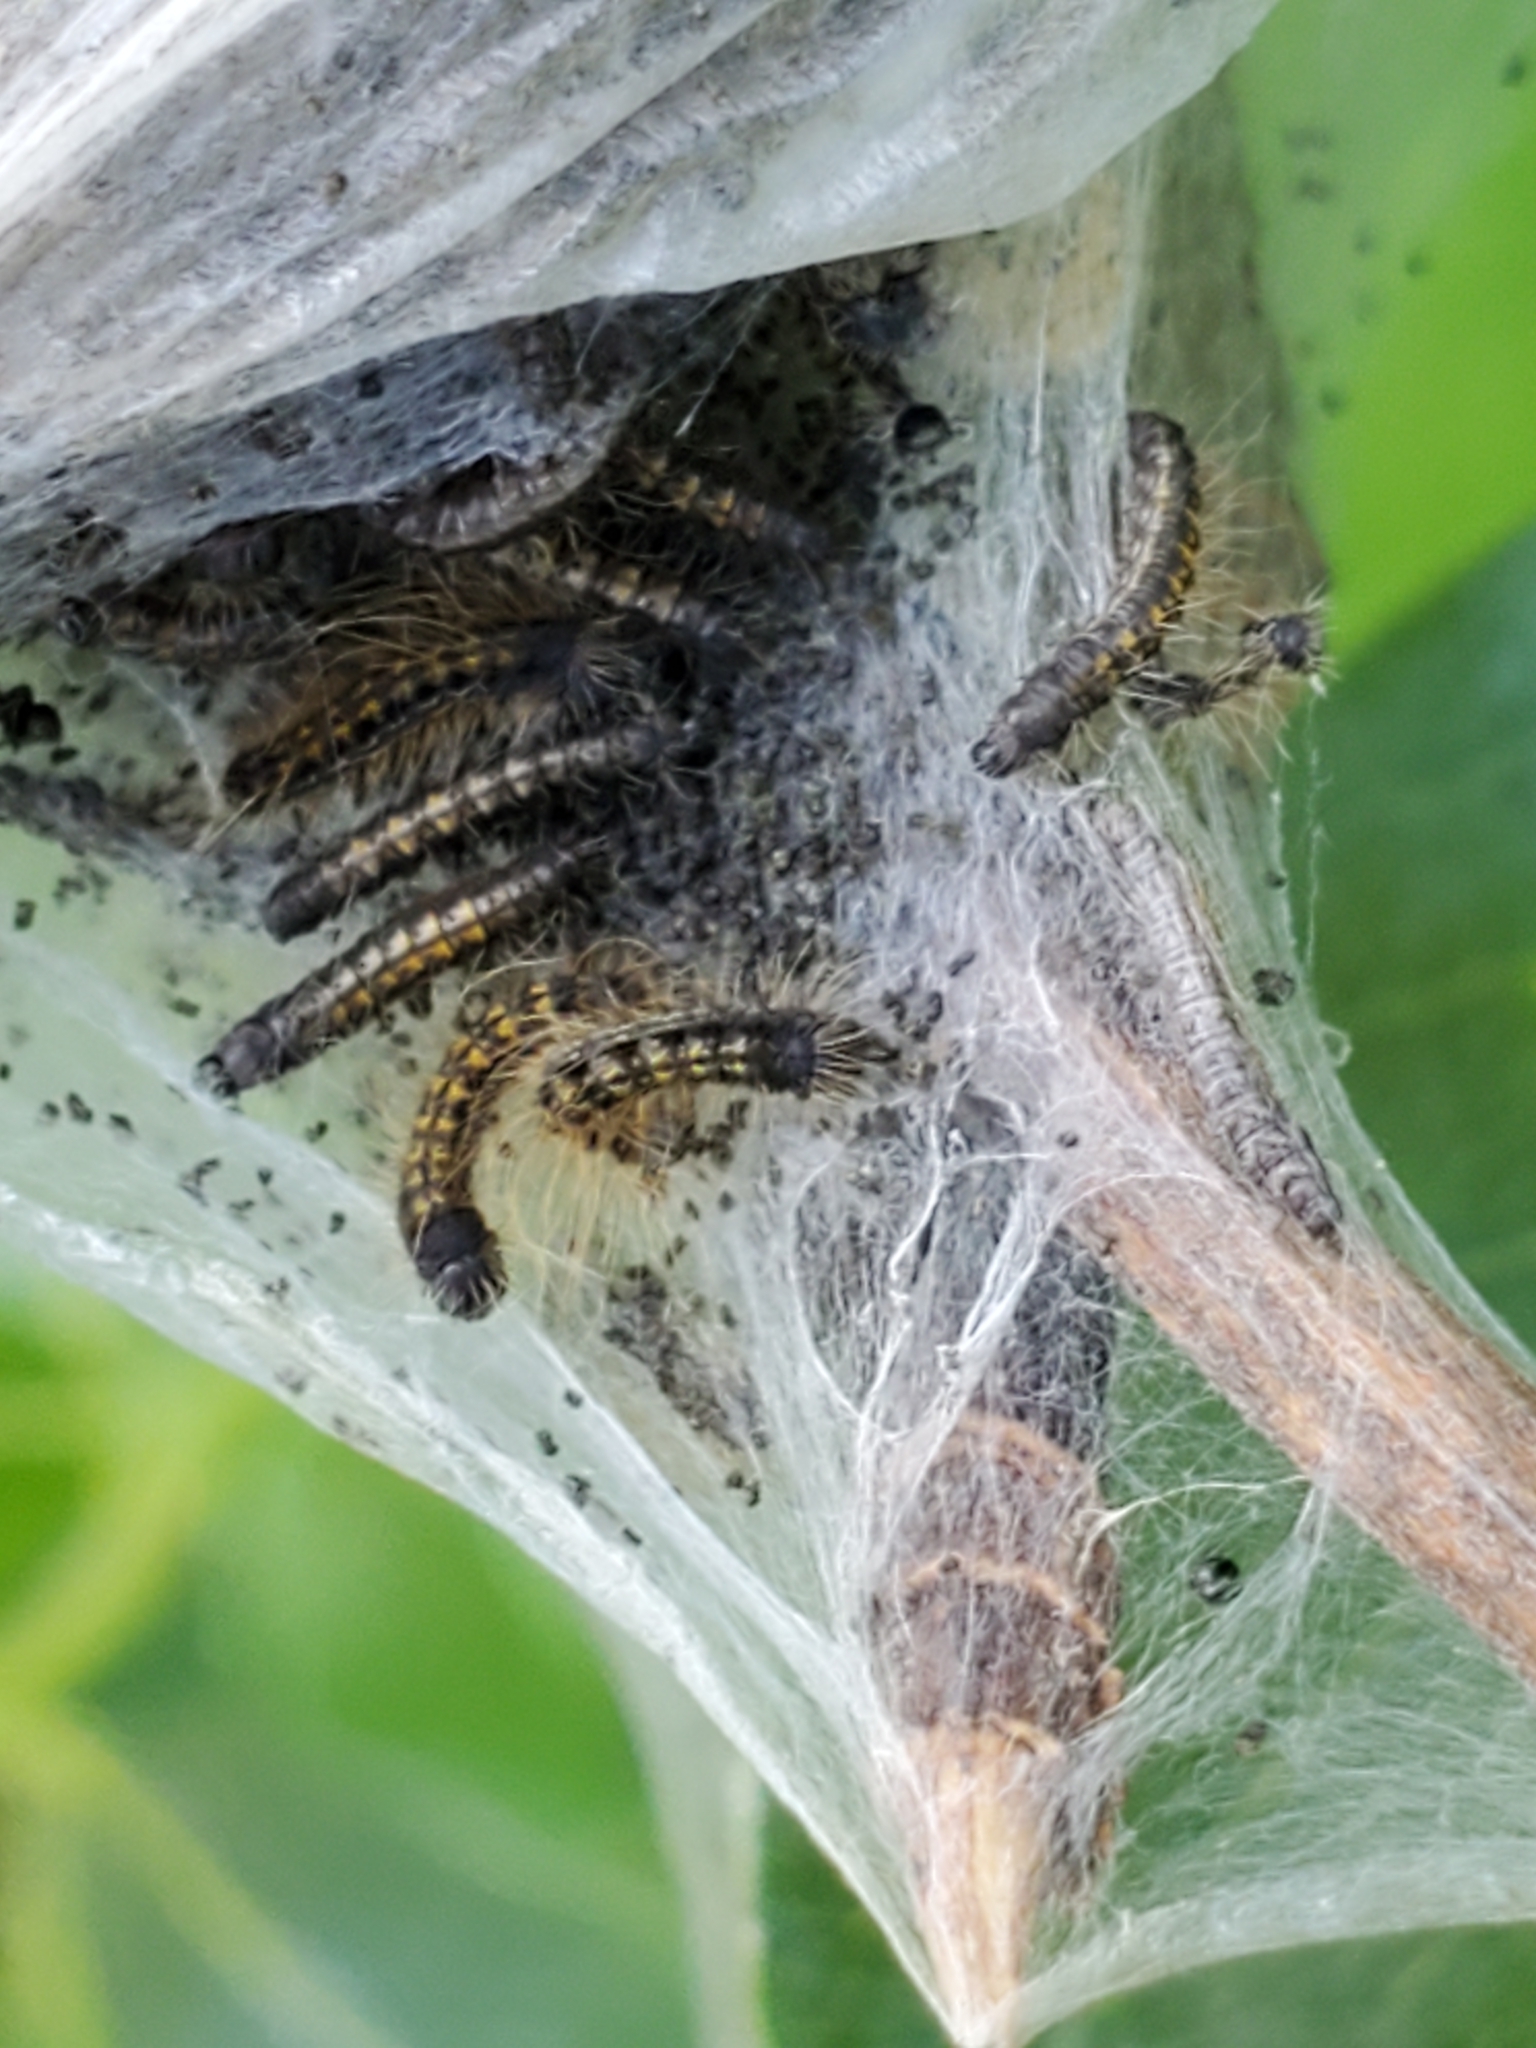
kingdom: Animalia
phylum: Arthropoda
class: Insecta
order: Lepidoptera
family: Lasiocampidae
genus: Malacosoma
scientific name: Malacosoma californica
